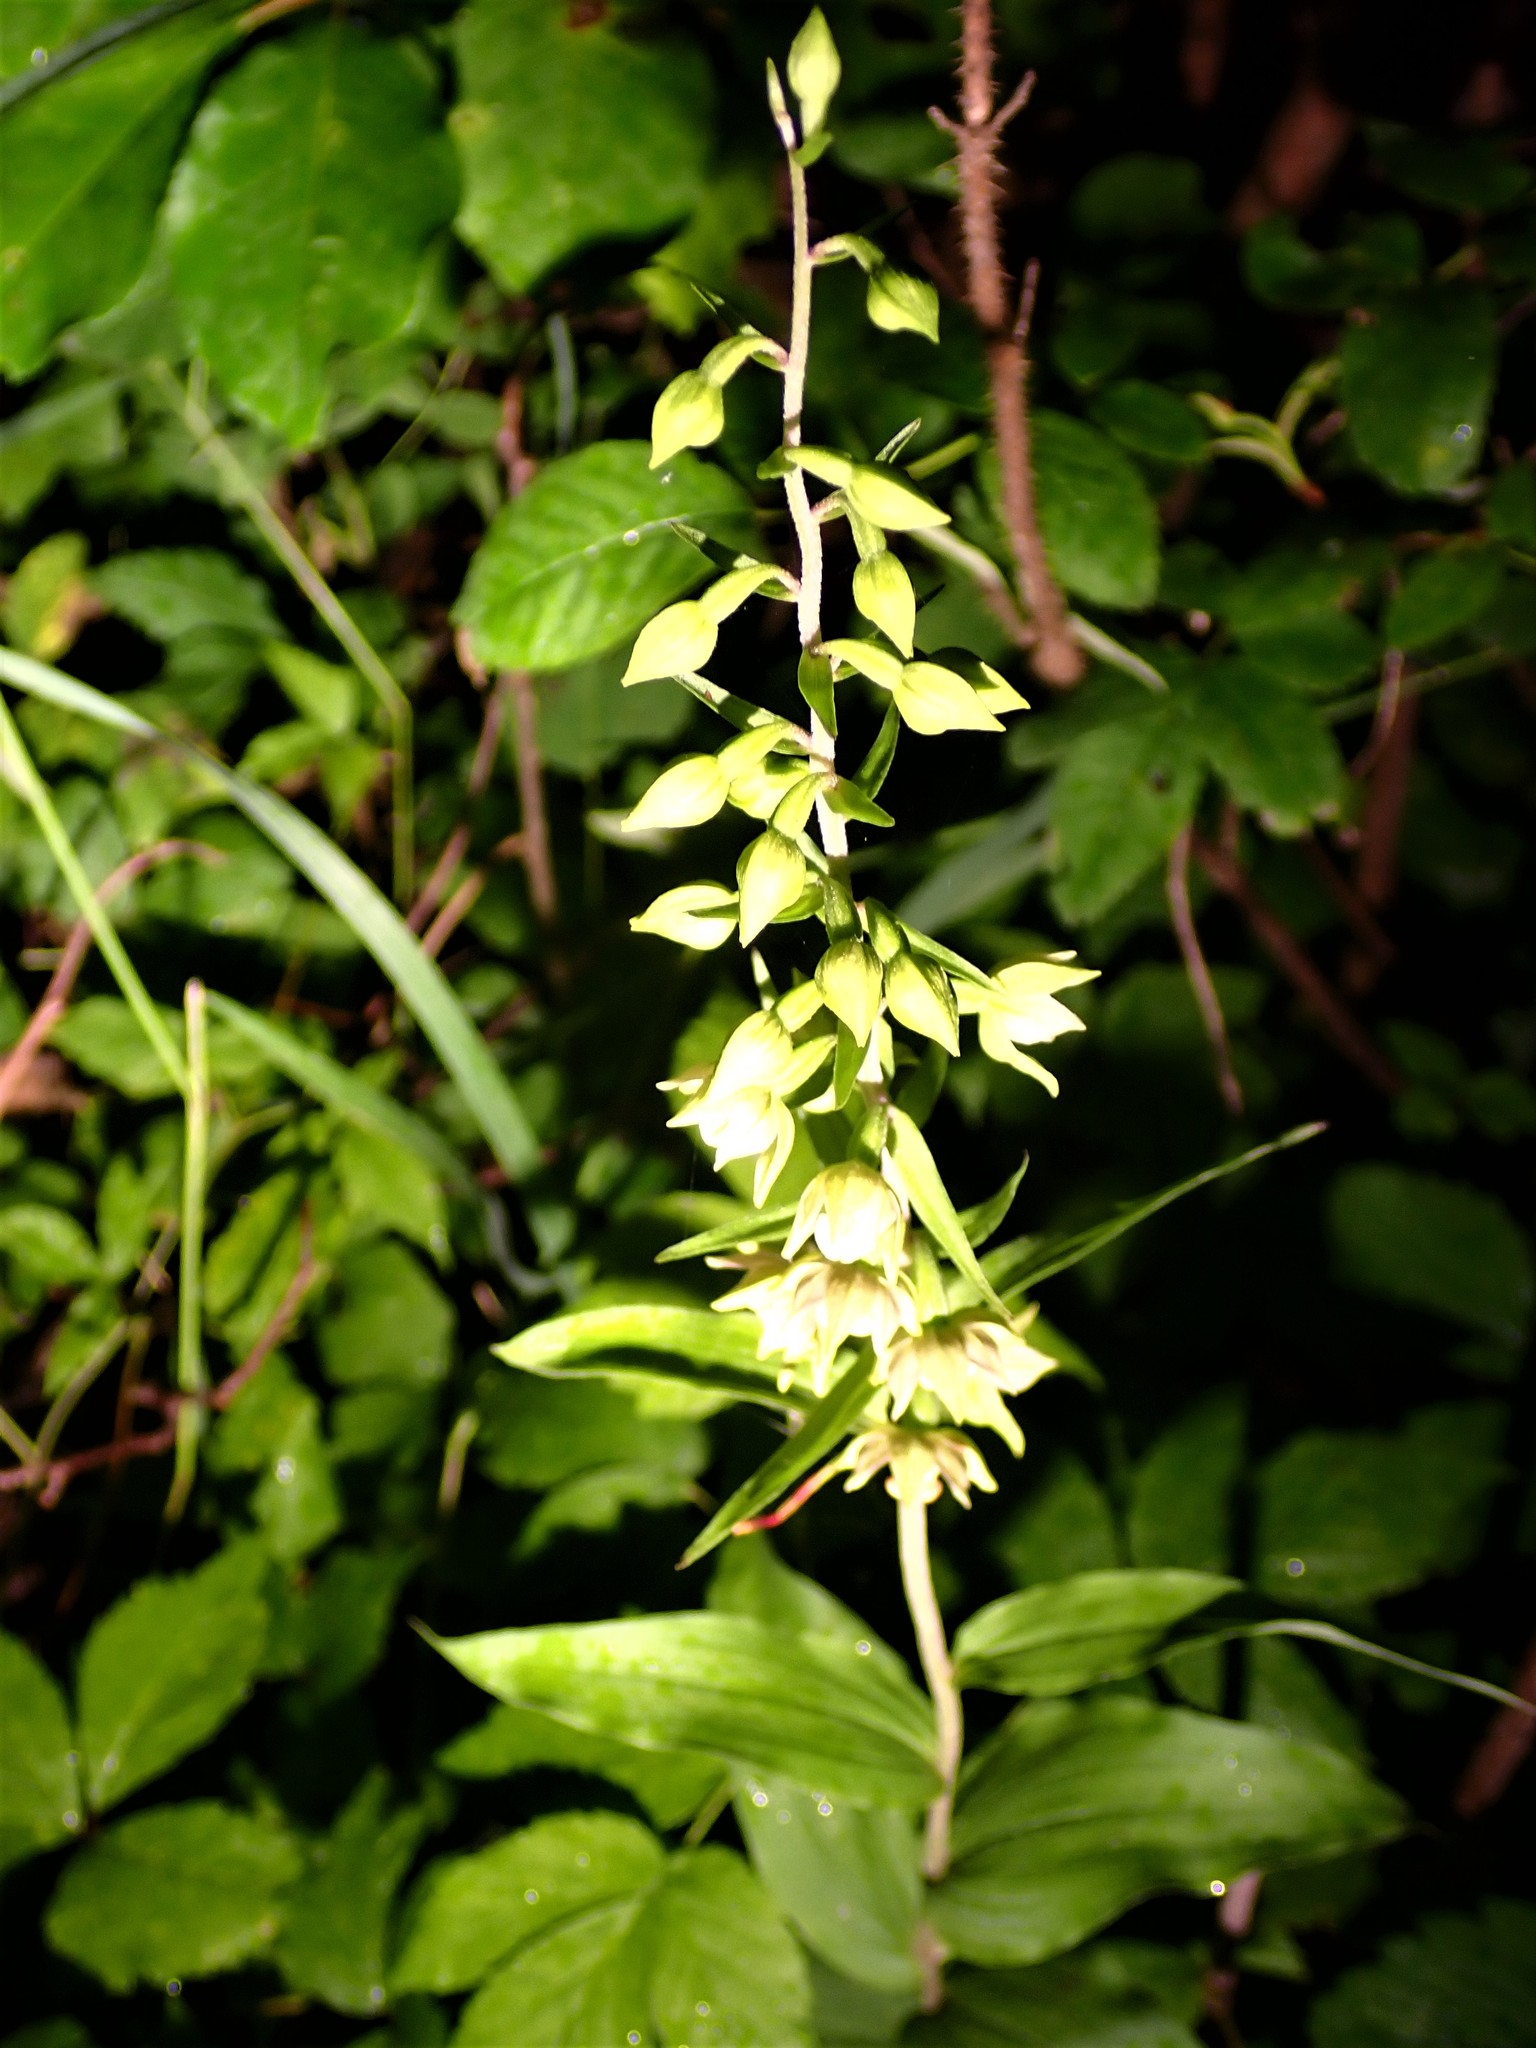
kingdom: Plantae
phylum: Tracheophyta
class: Liliopsida
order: Asparagales
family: Orchidaceae
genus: Epipactis
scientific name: Epipactis helleborine
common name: Broad-leaved helleborine
